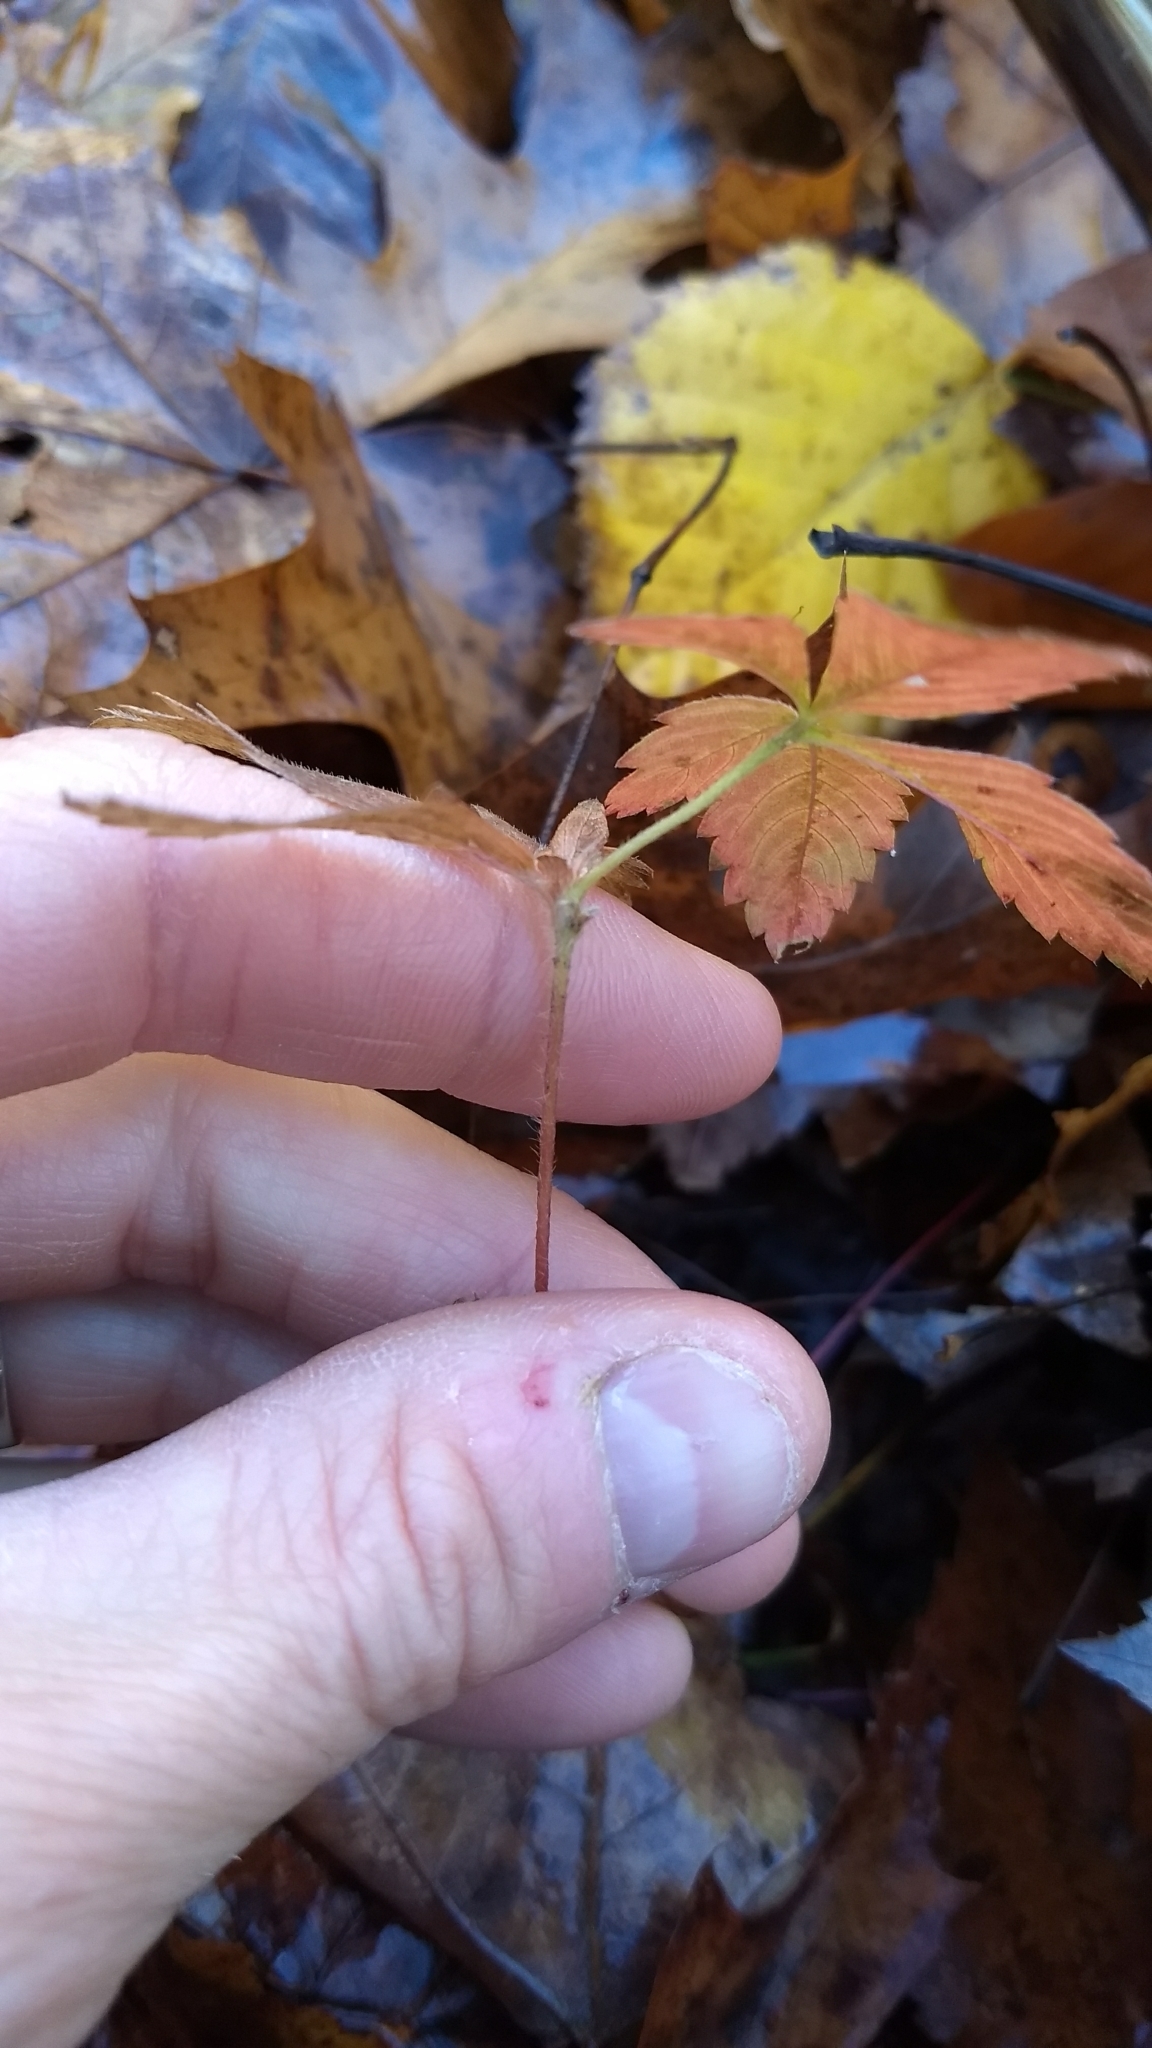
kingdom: Plantae
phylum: Tracheophyta
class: Magnoliopsida
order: Rosales
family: Rosaceae
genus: Potentilla
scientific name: Potentilla simplex
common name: Old field cinquefoil
